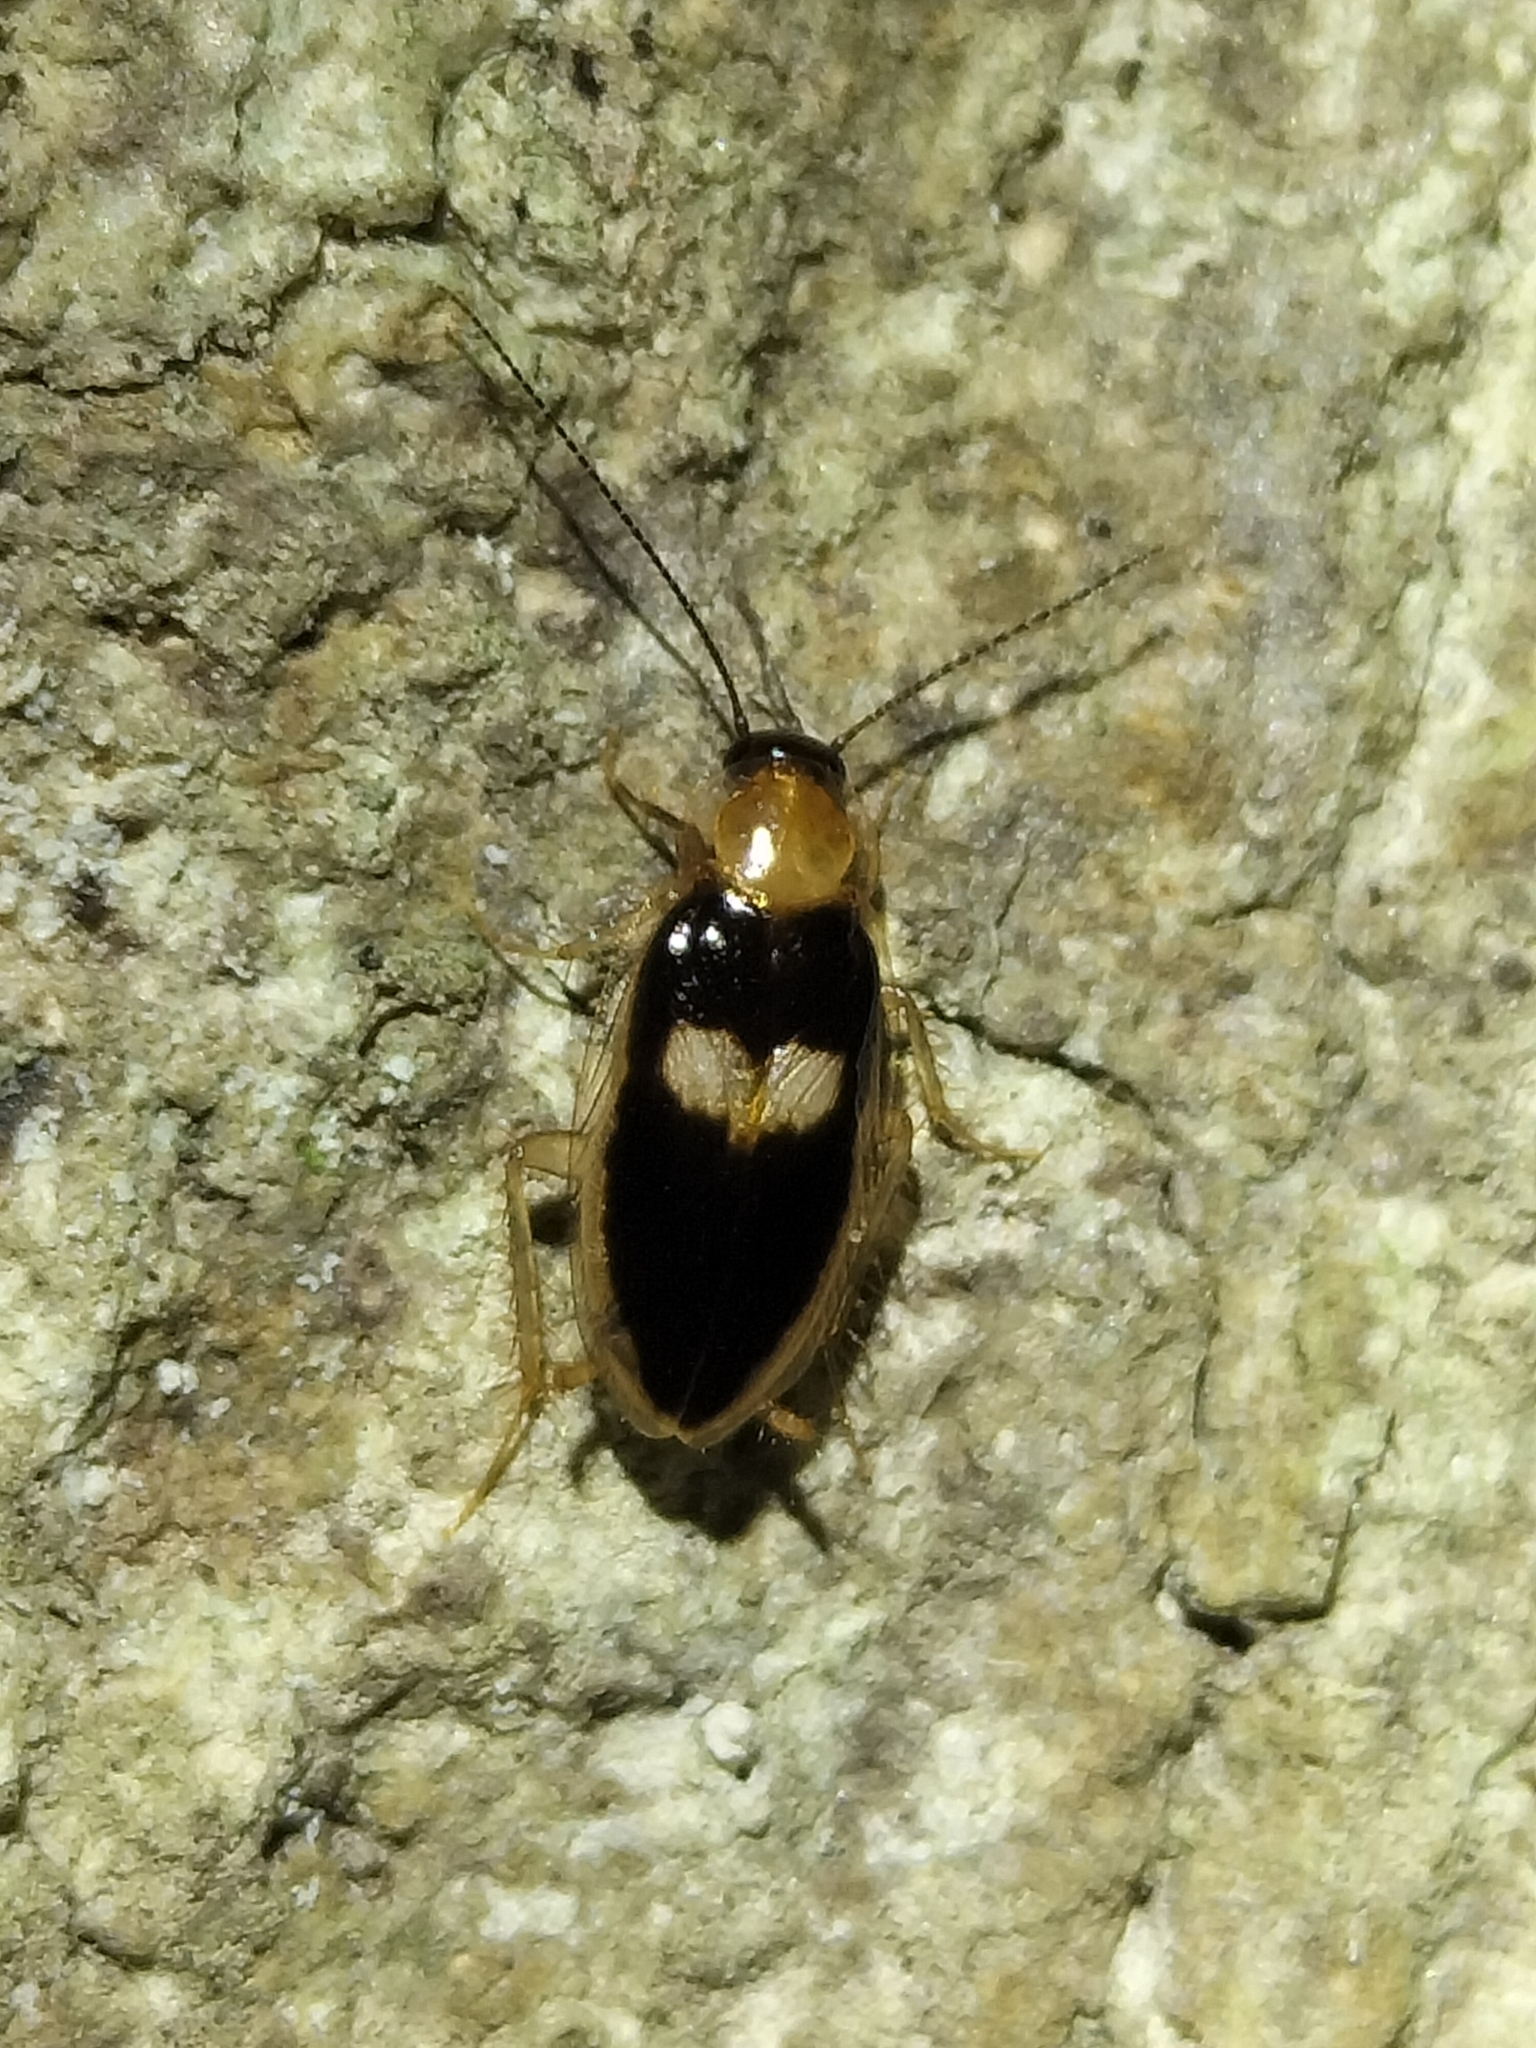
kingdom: Animalia
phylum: Arthropoda
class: Insecta
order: Blattodea
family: Anaplectidae
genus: Anaplecta
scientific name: Anaplecta calosoma
